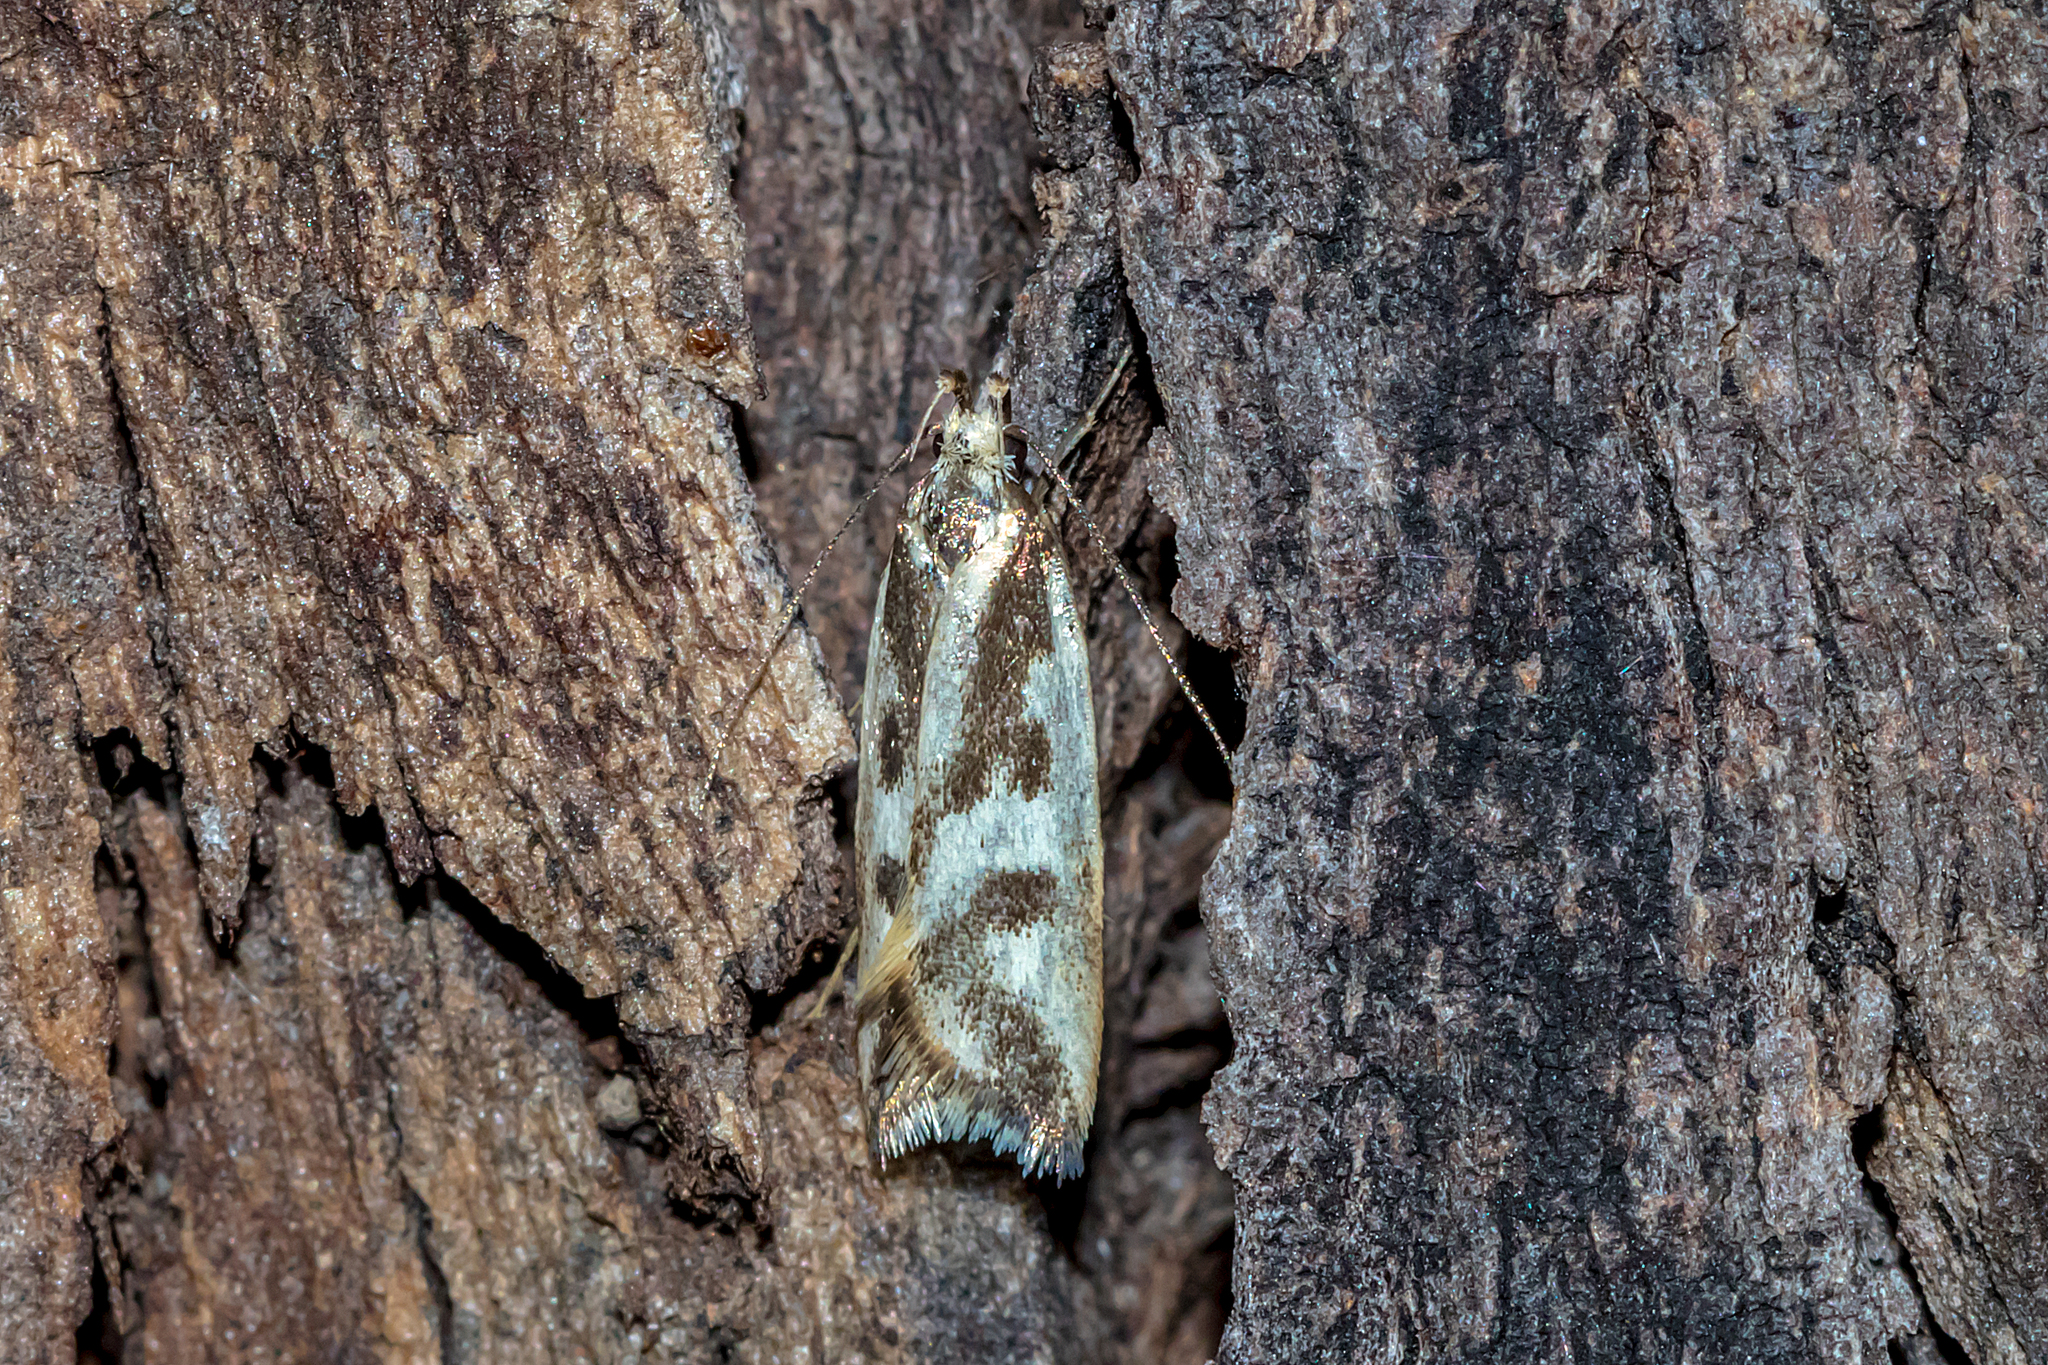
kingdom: Animalia
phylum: Arthropoda
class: Insecta
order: Lepidoptera
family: Oecophoridae
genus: Epithymema
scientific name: Epithymema incomposita
